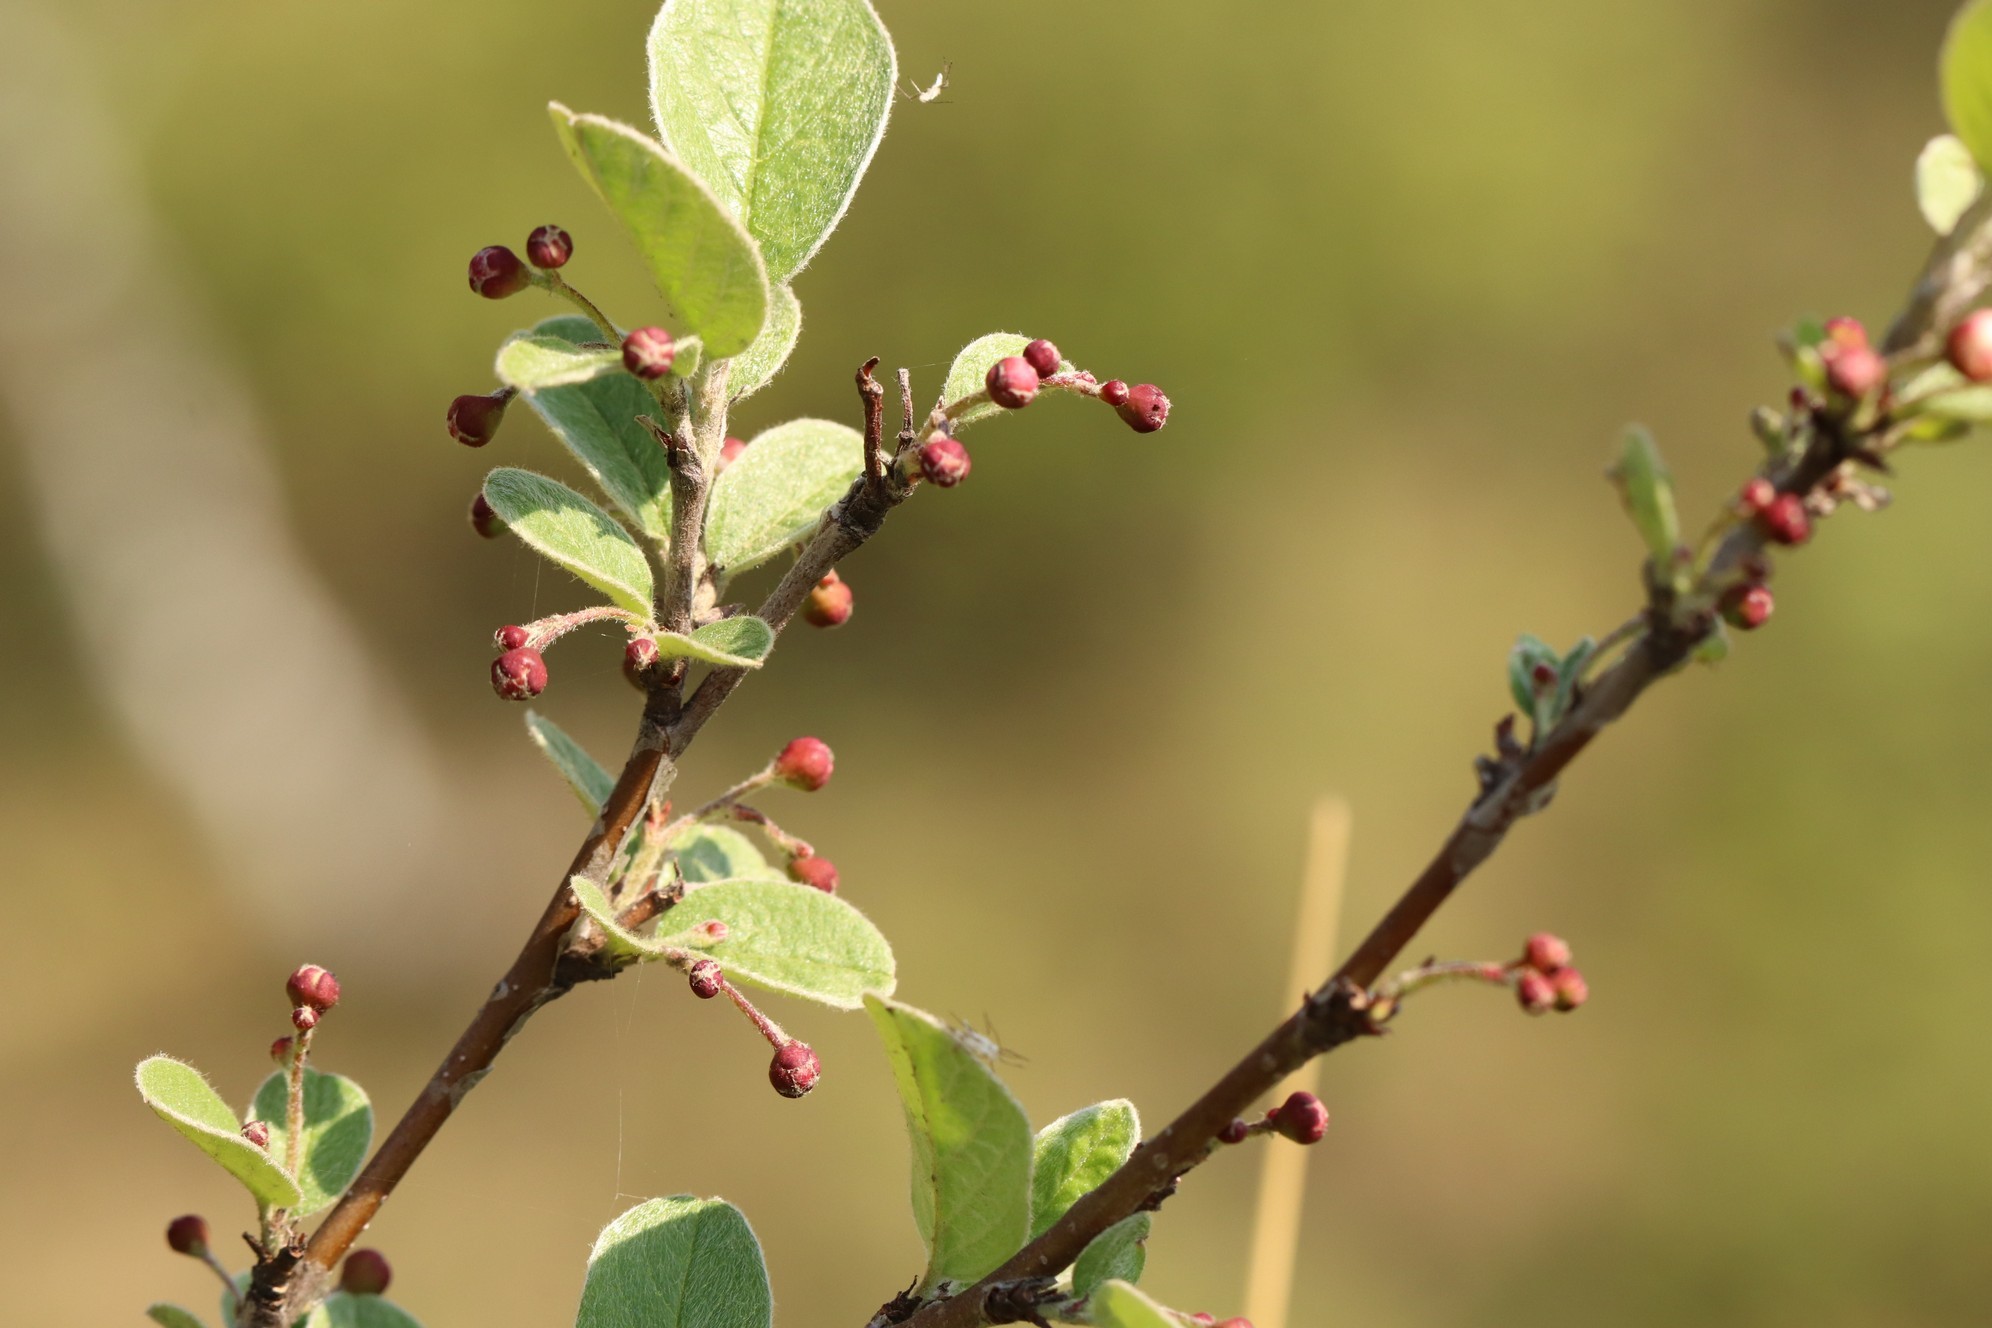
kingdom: Plantae
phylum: Tracheophyta
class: Magnoliopsida
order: Rosales
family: Rosaceae
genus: Cotoneaster
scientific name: Cotoneaster melanocarpus
